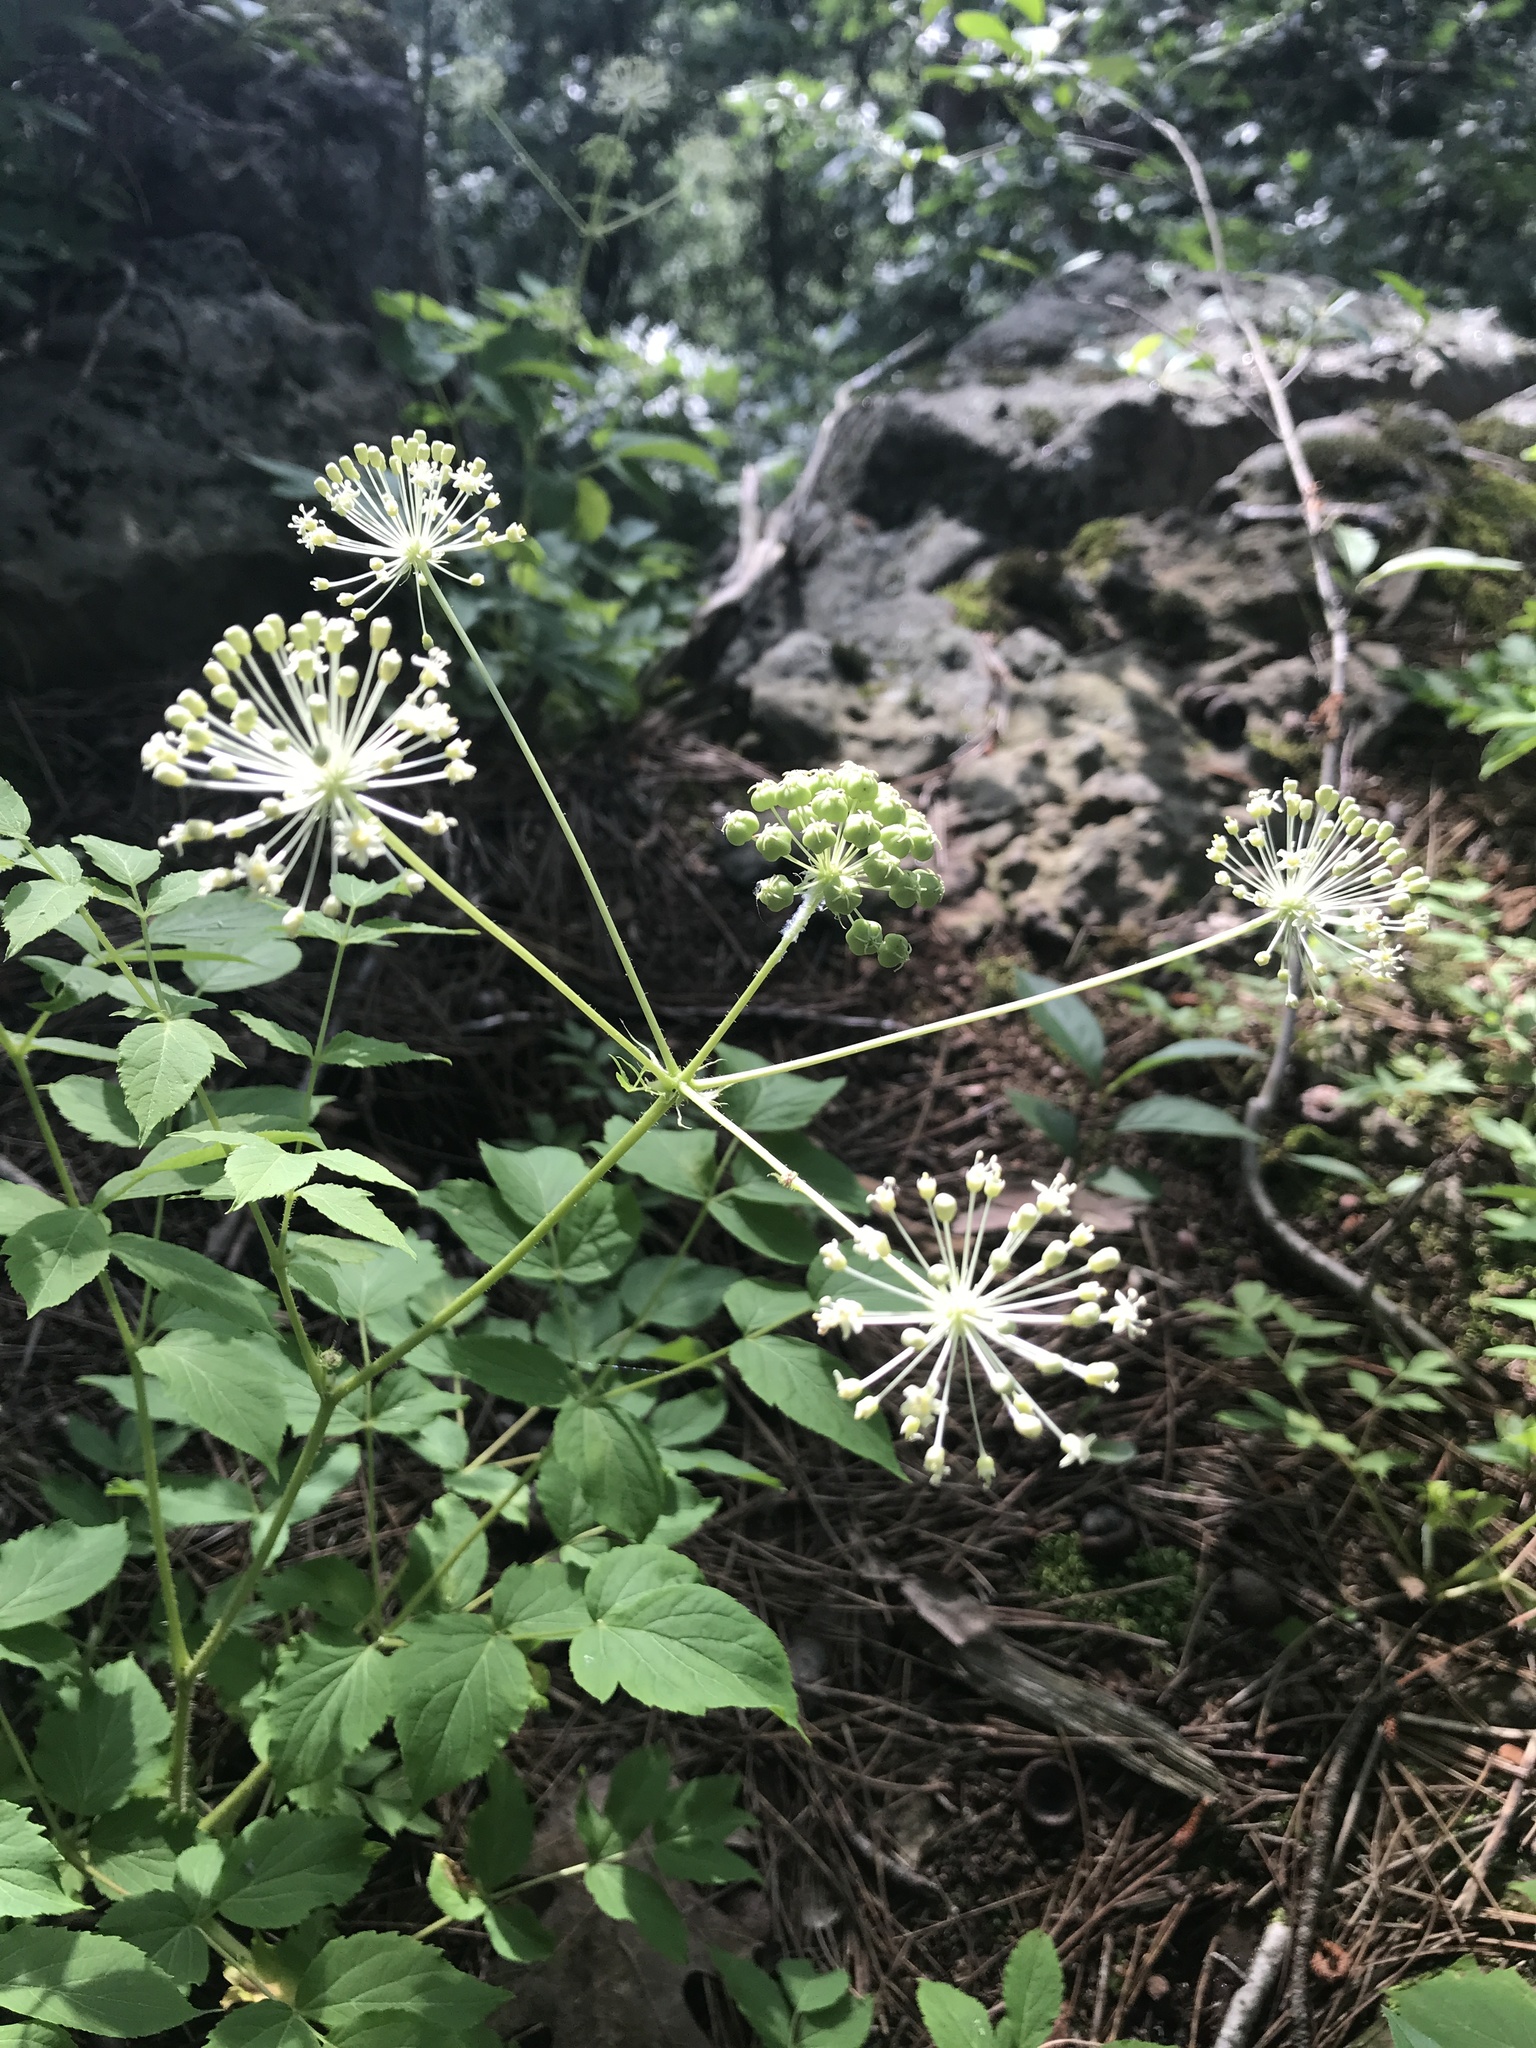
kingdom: Plantae
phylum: Tracheophyta
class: Magnoliopsida
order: Apiales
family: Araliaceae
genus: Aralia
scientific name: Aralia hispida
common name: Bristly sarsaparilla
